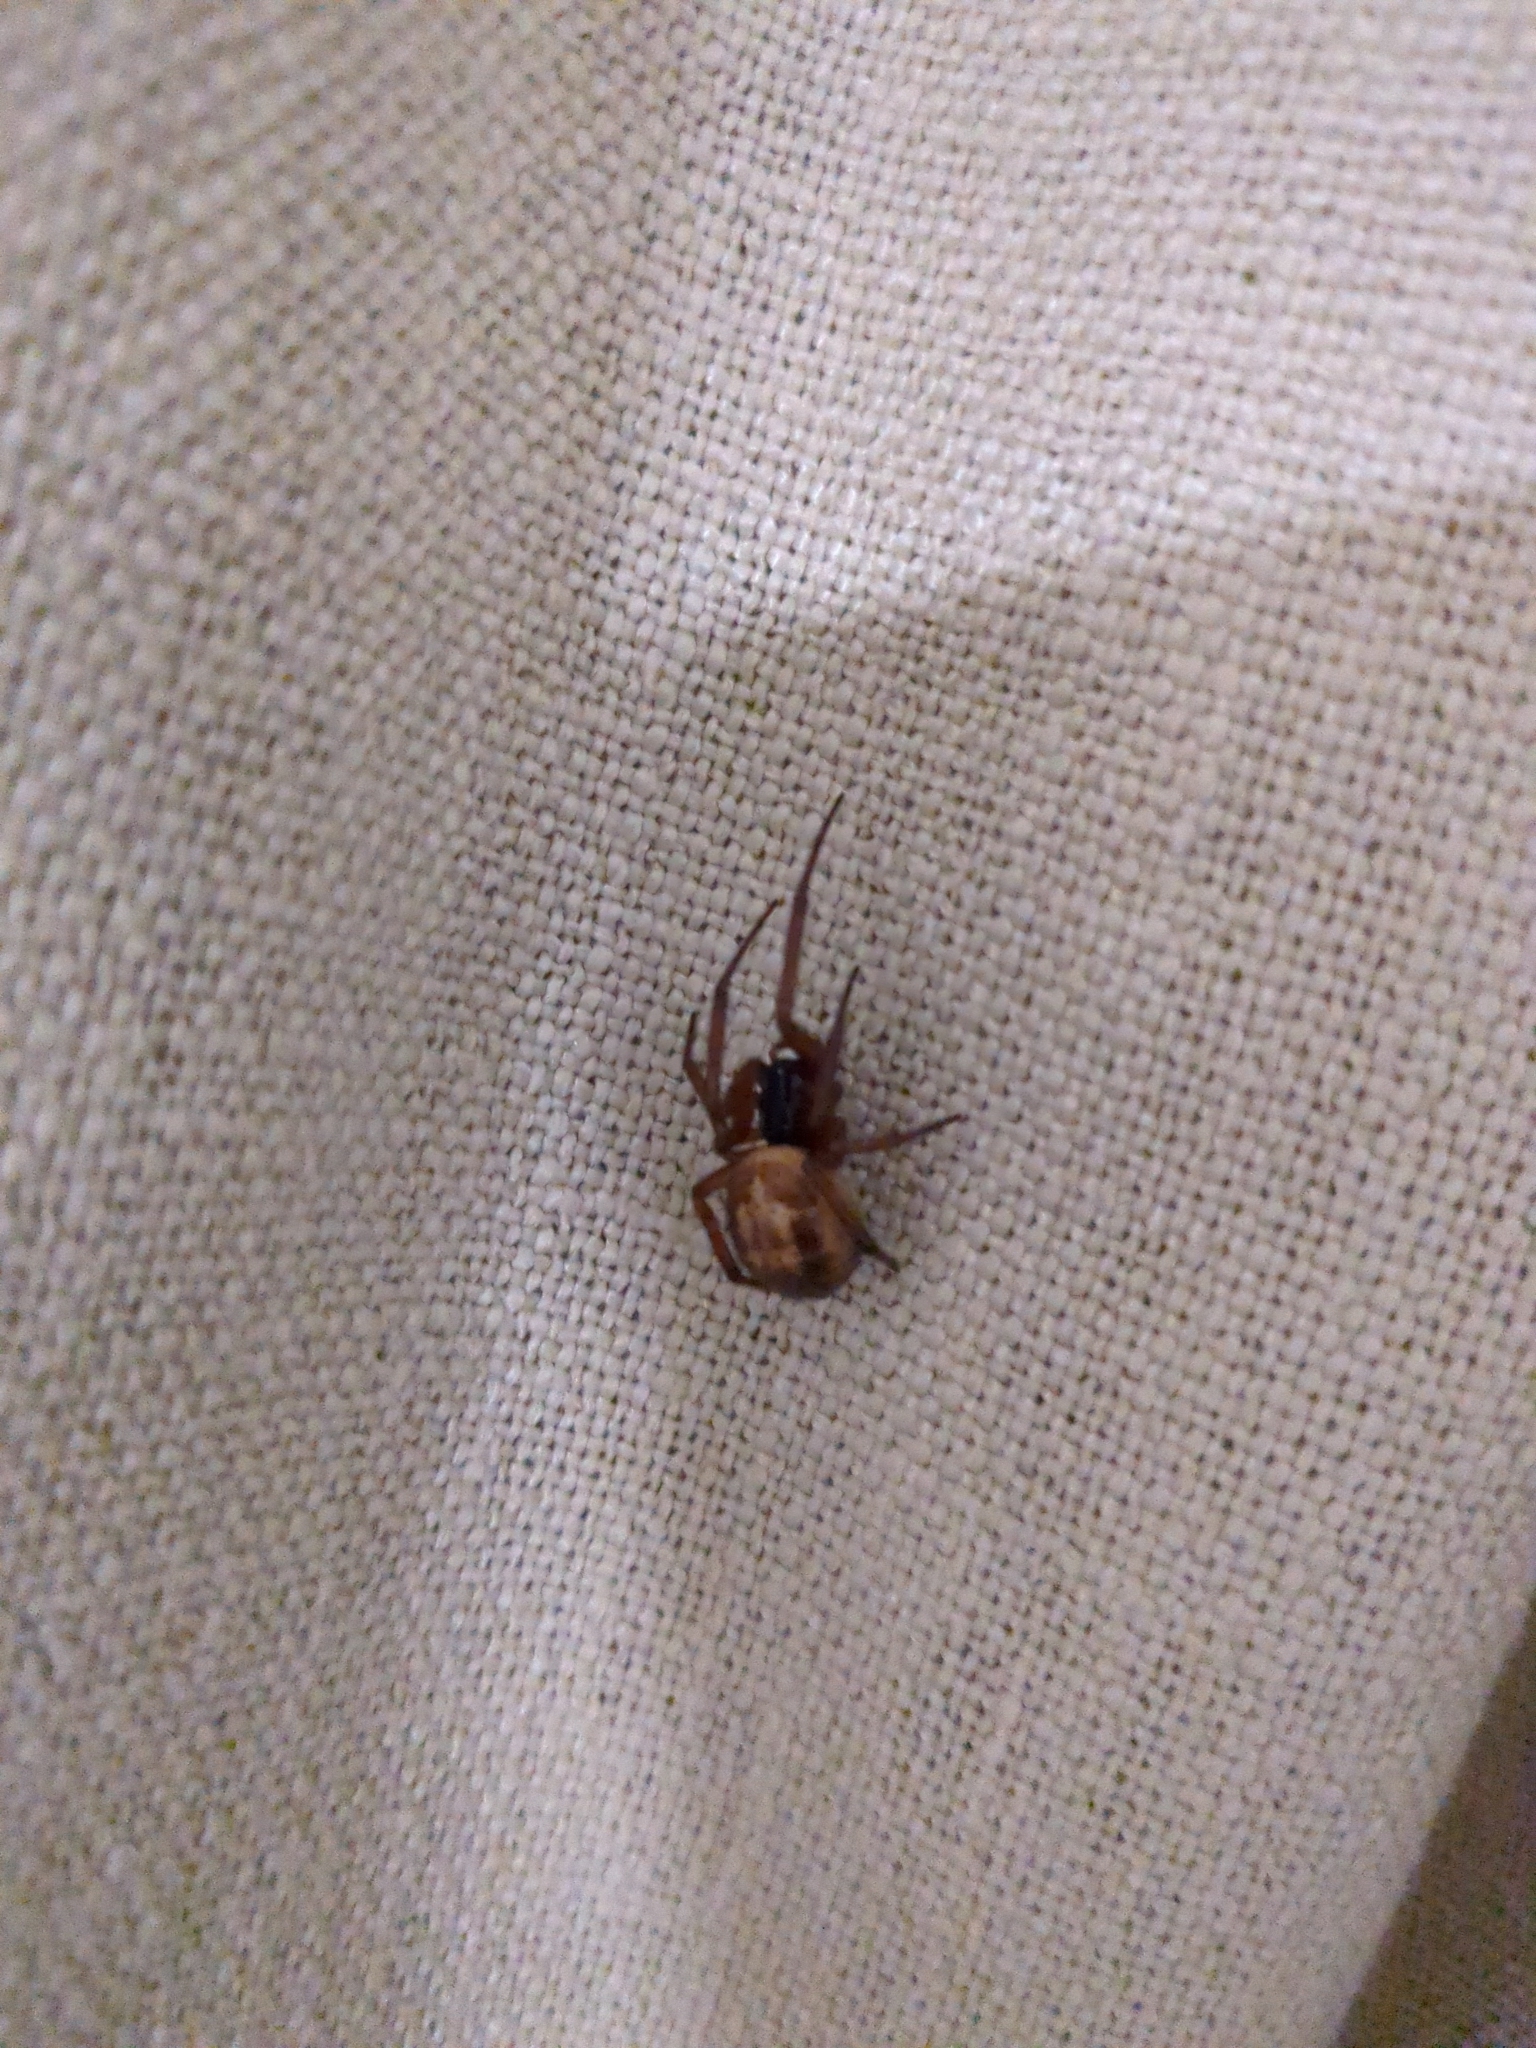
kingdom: Animalia
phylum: Arthropoda
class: Arachnida
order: Araneae
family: Theridiidae
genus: Steatoda
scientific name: Steatoda nobilis
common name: Cobweb weaver
